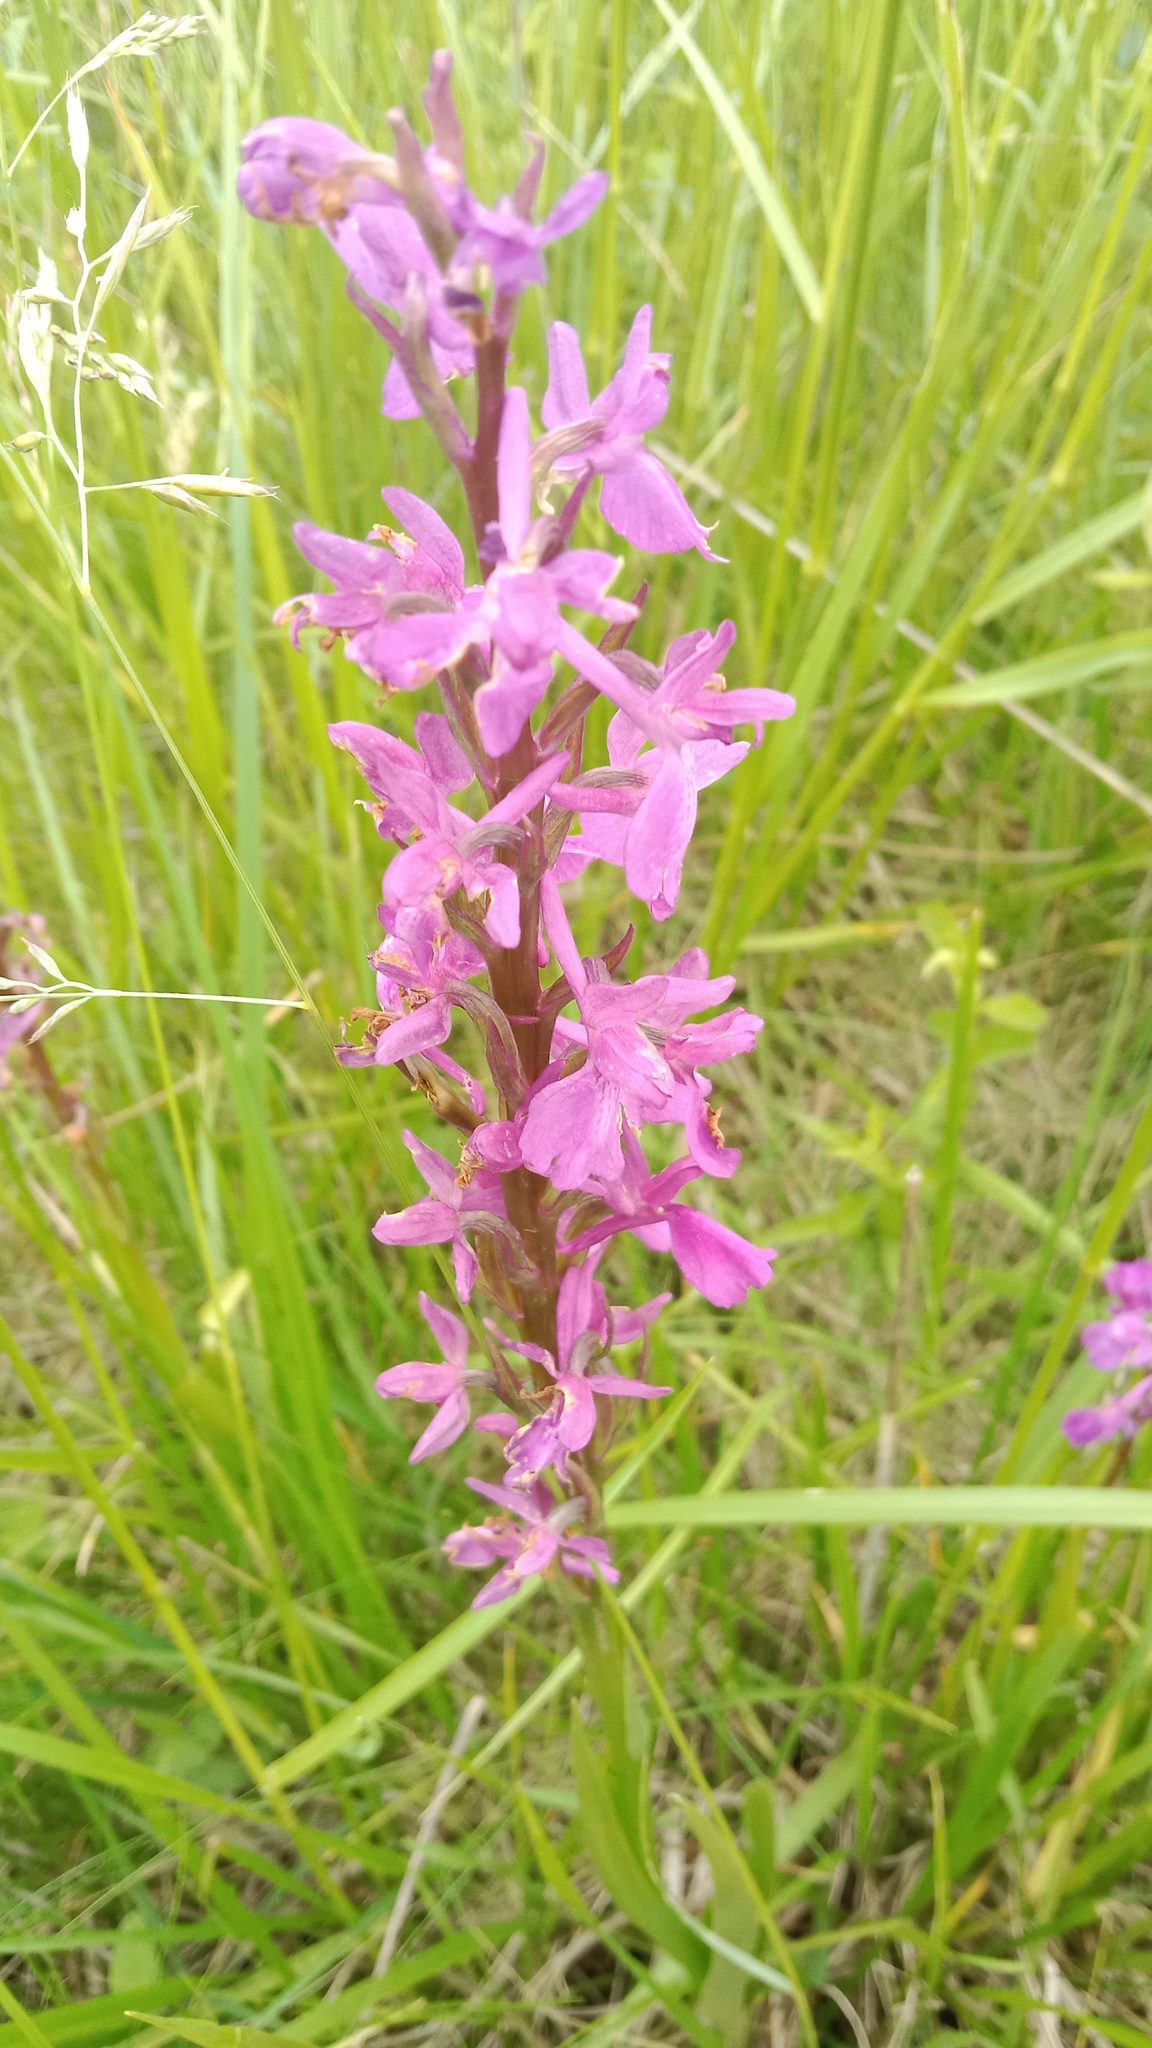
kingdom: Plantae
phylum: Tracheophyta
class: Liliopsida
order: Asparagales
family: Orchidaceae
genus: Anacamptis
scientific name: Anacamptis palustris
